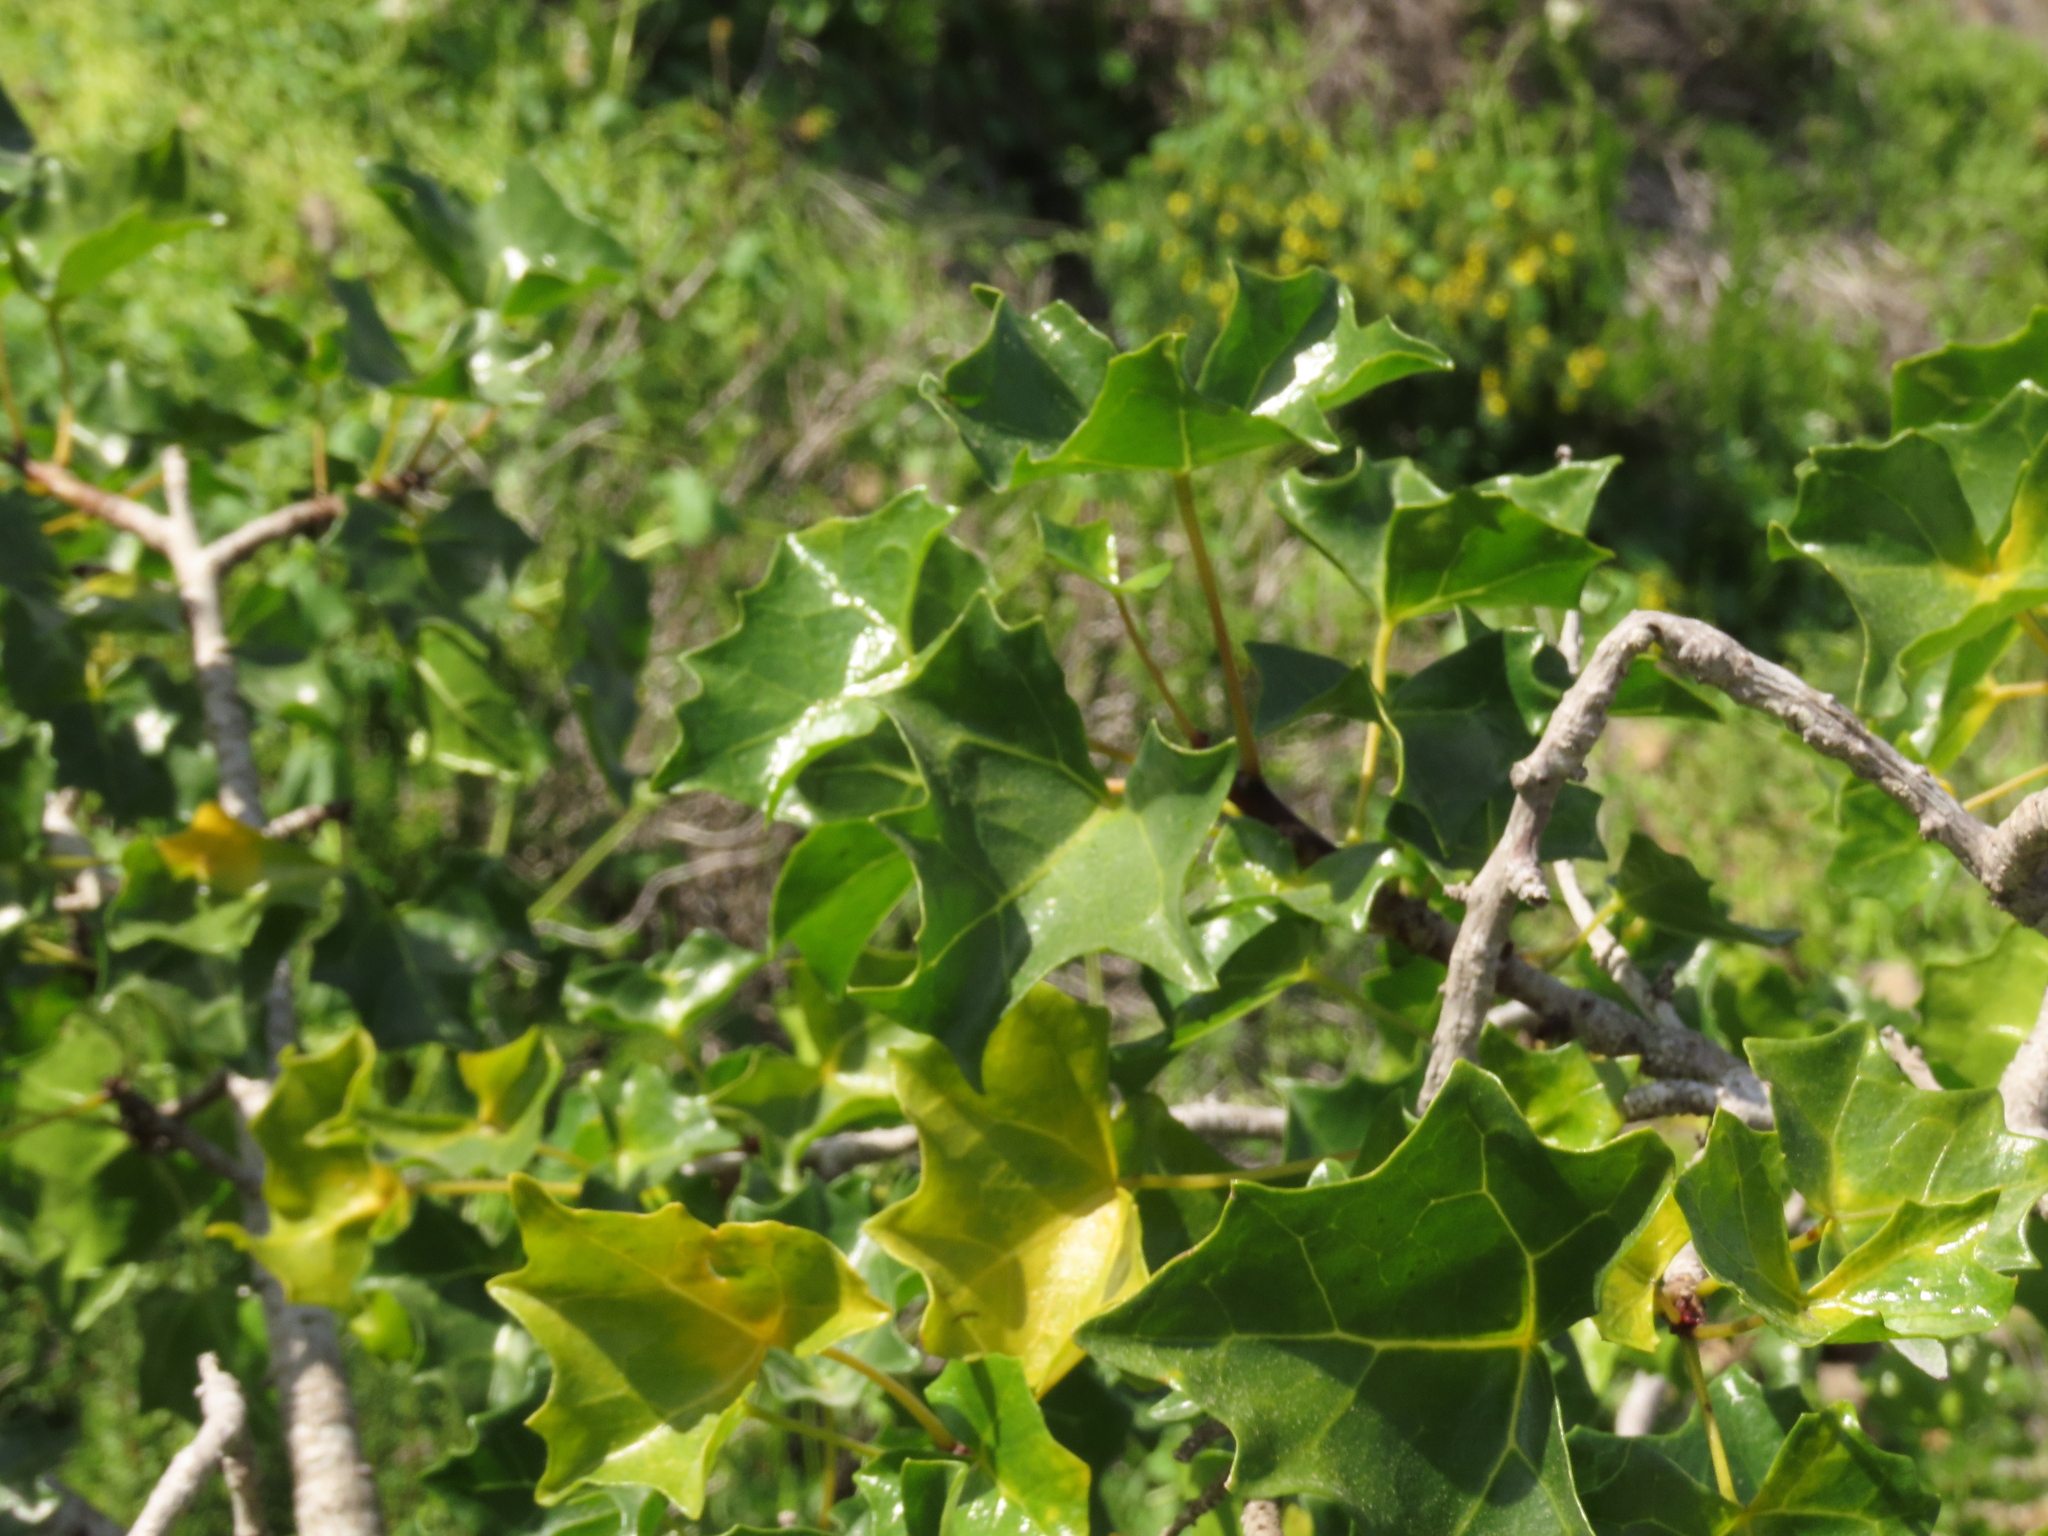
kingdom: Plantae
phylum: Tracheophyta
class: Magnoliopsida
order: Brassicales
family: Caricaceae
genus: Vasconcellea
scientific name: Vasconcellea chilensis
